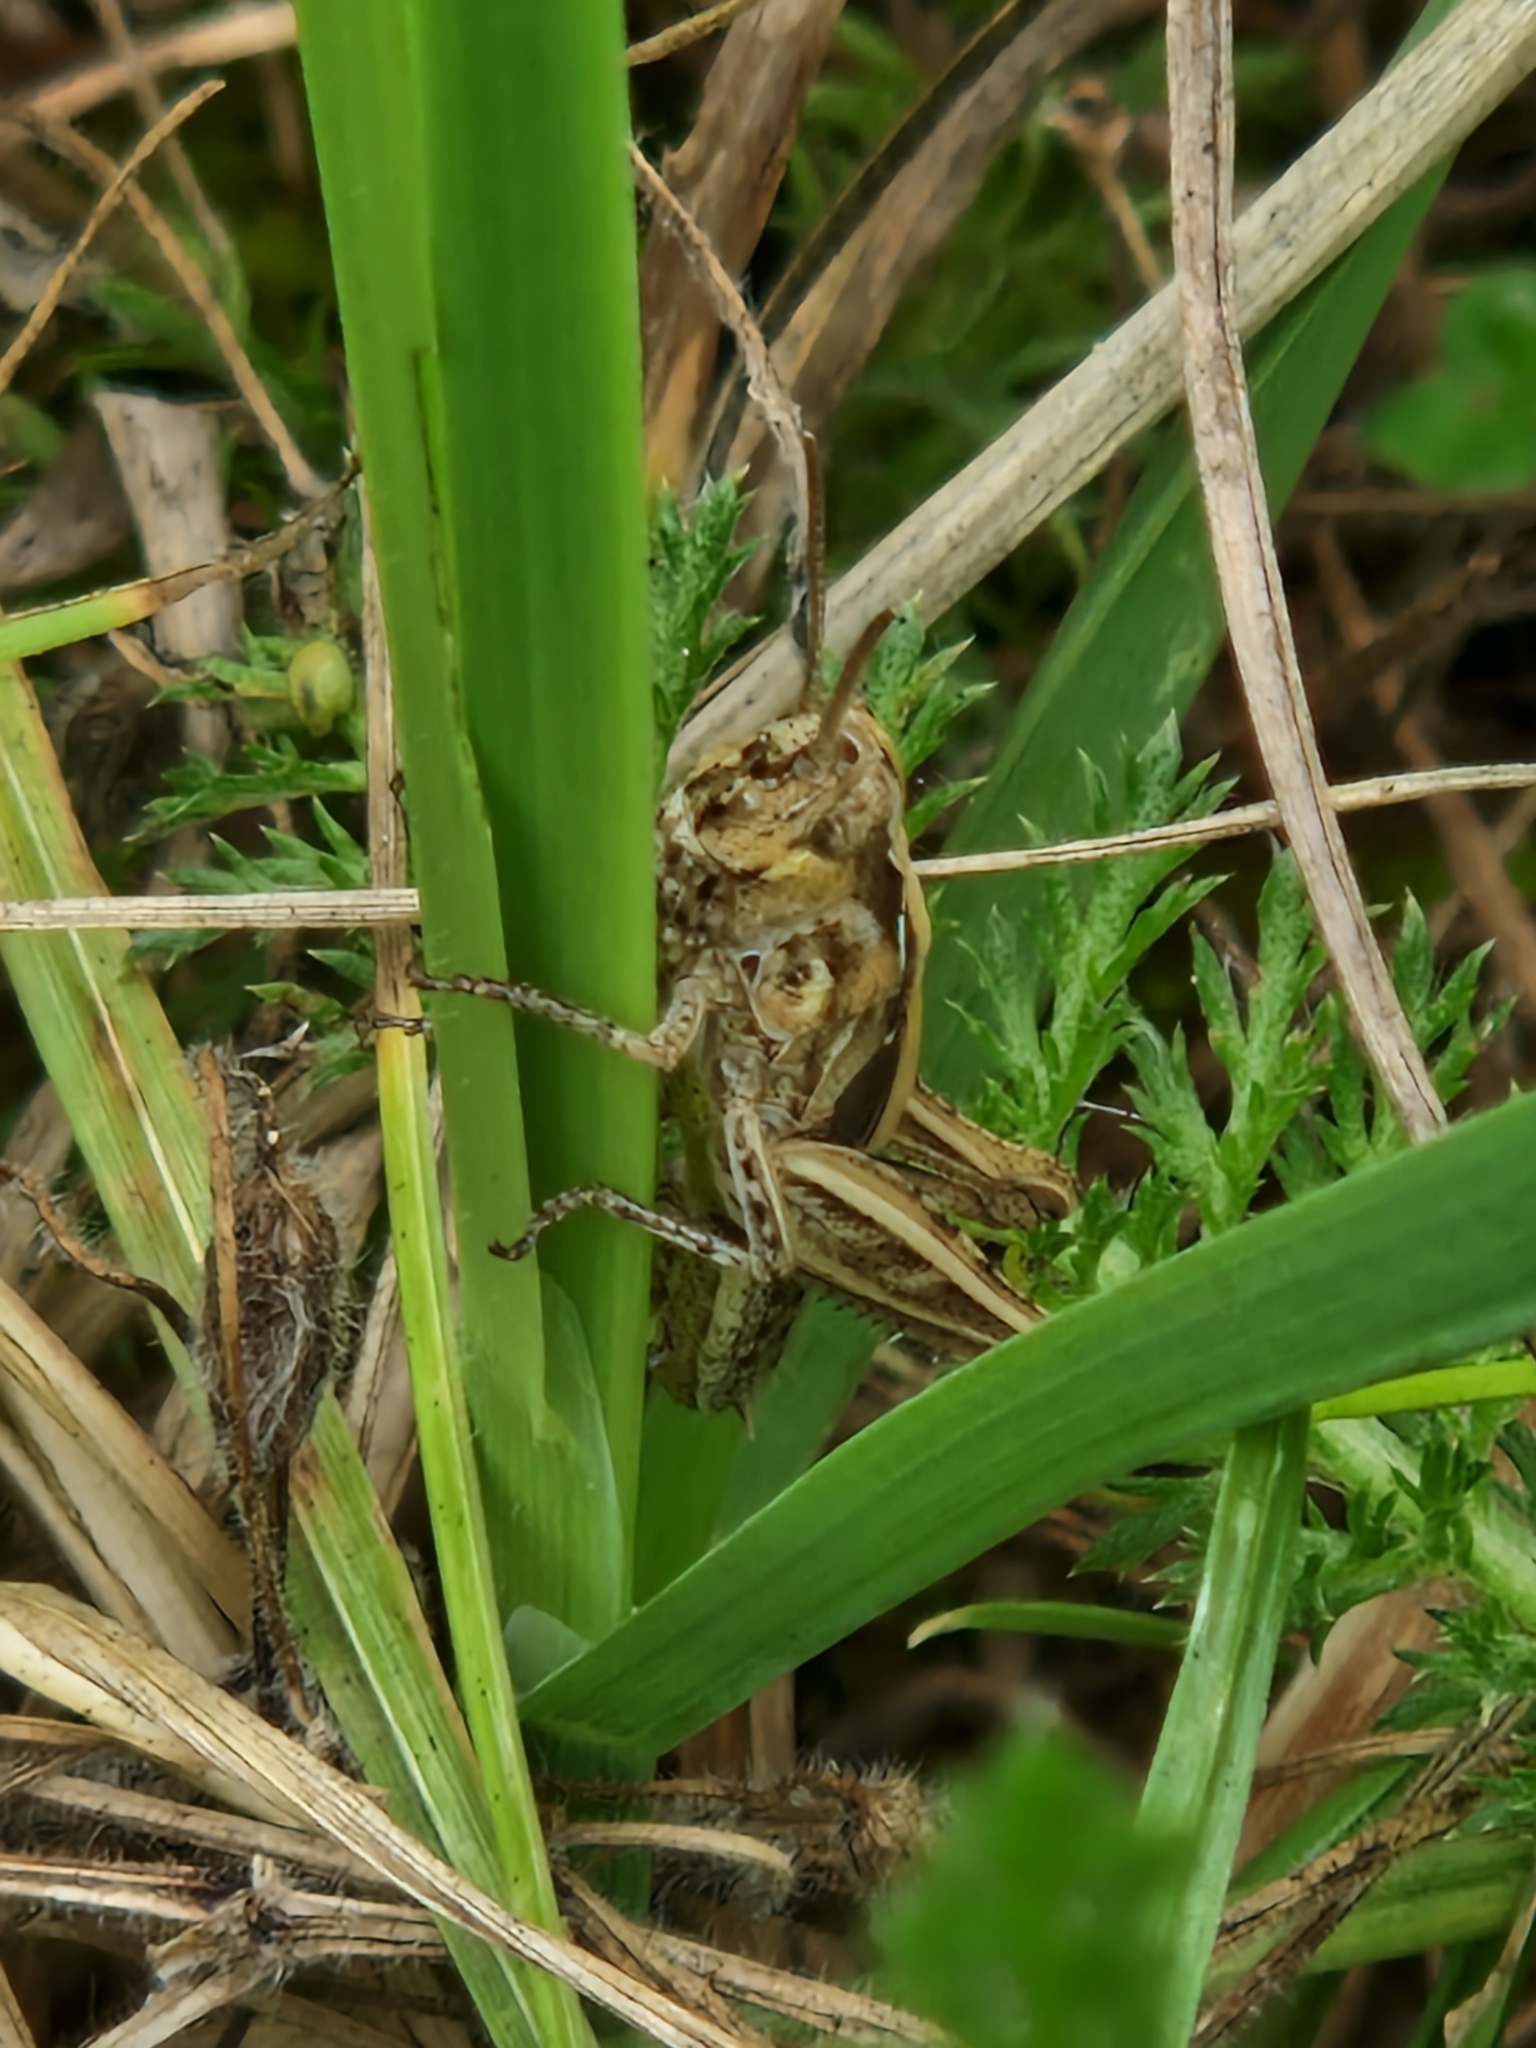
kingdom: Animalia
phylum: Arthropoda
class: Insecta
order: Orthoptera
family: Acrididae
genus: Chorthippus
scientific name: Chorthippus brunneus
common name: Field grasshopper
